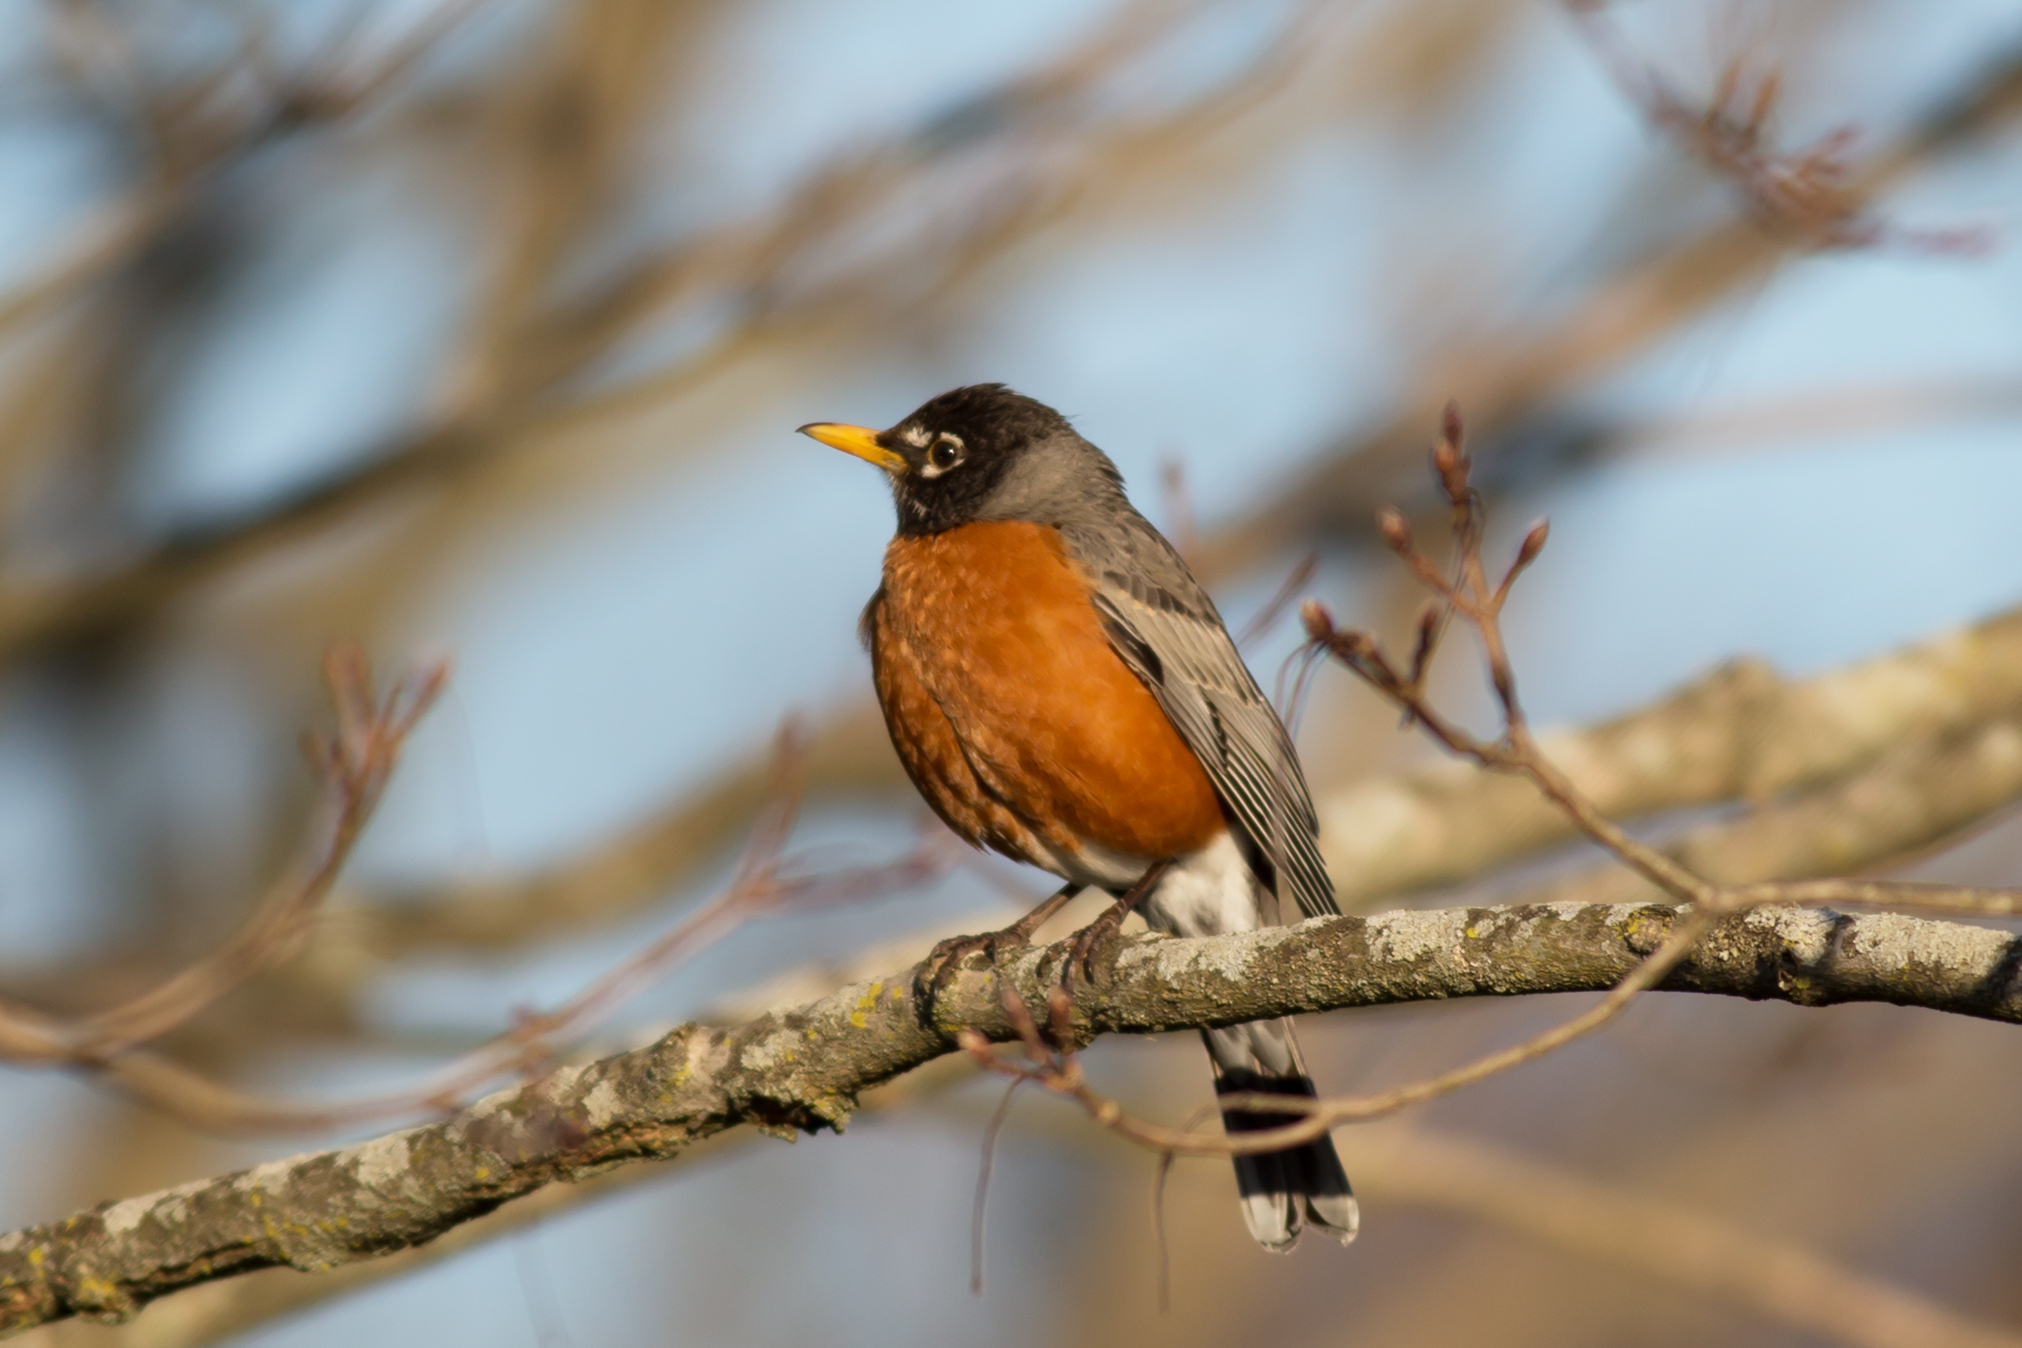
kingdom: Animalia
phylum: Chordata
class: Aves
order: Passeriformes
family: Turdidae
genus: Turdus
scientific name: Turdus migratorius
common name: American robin
